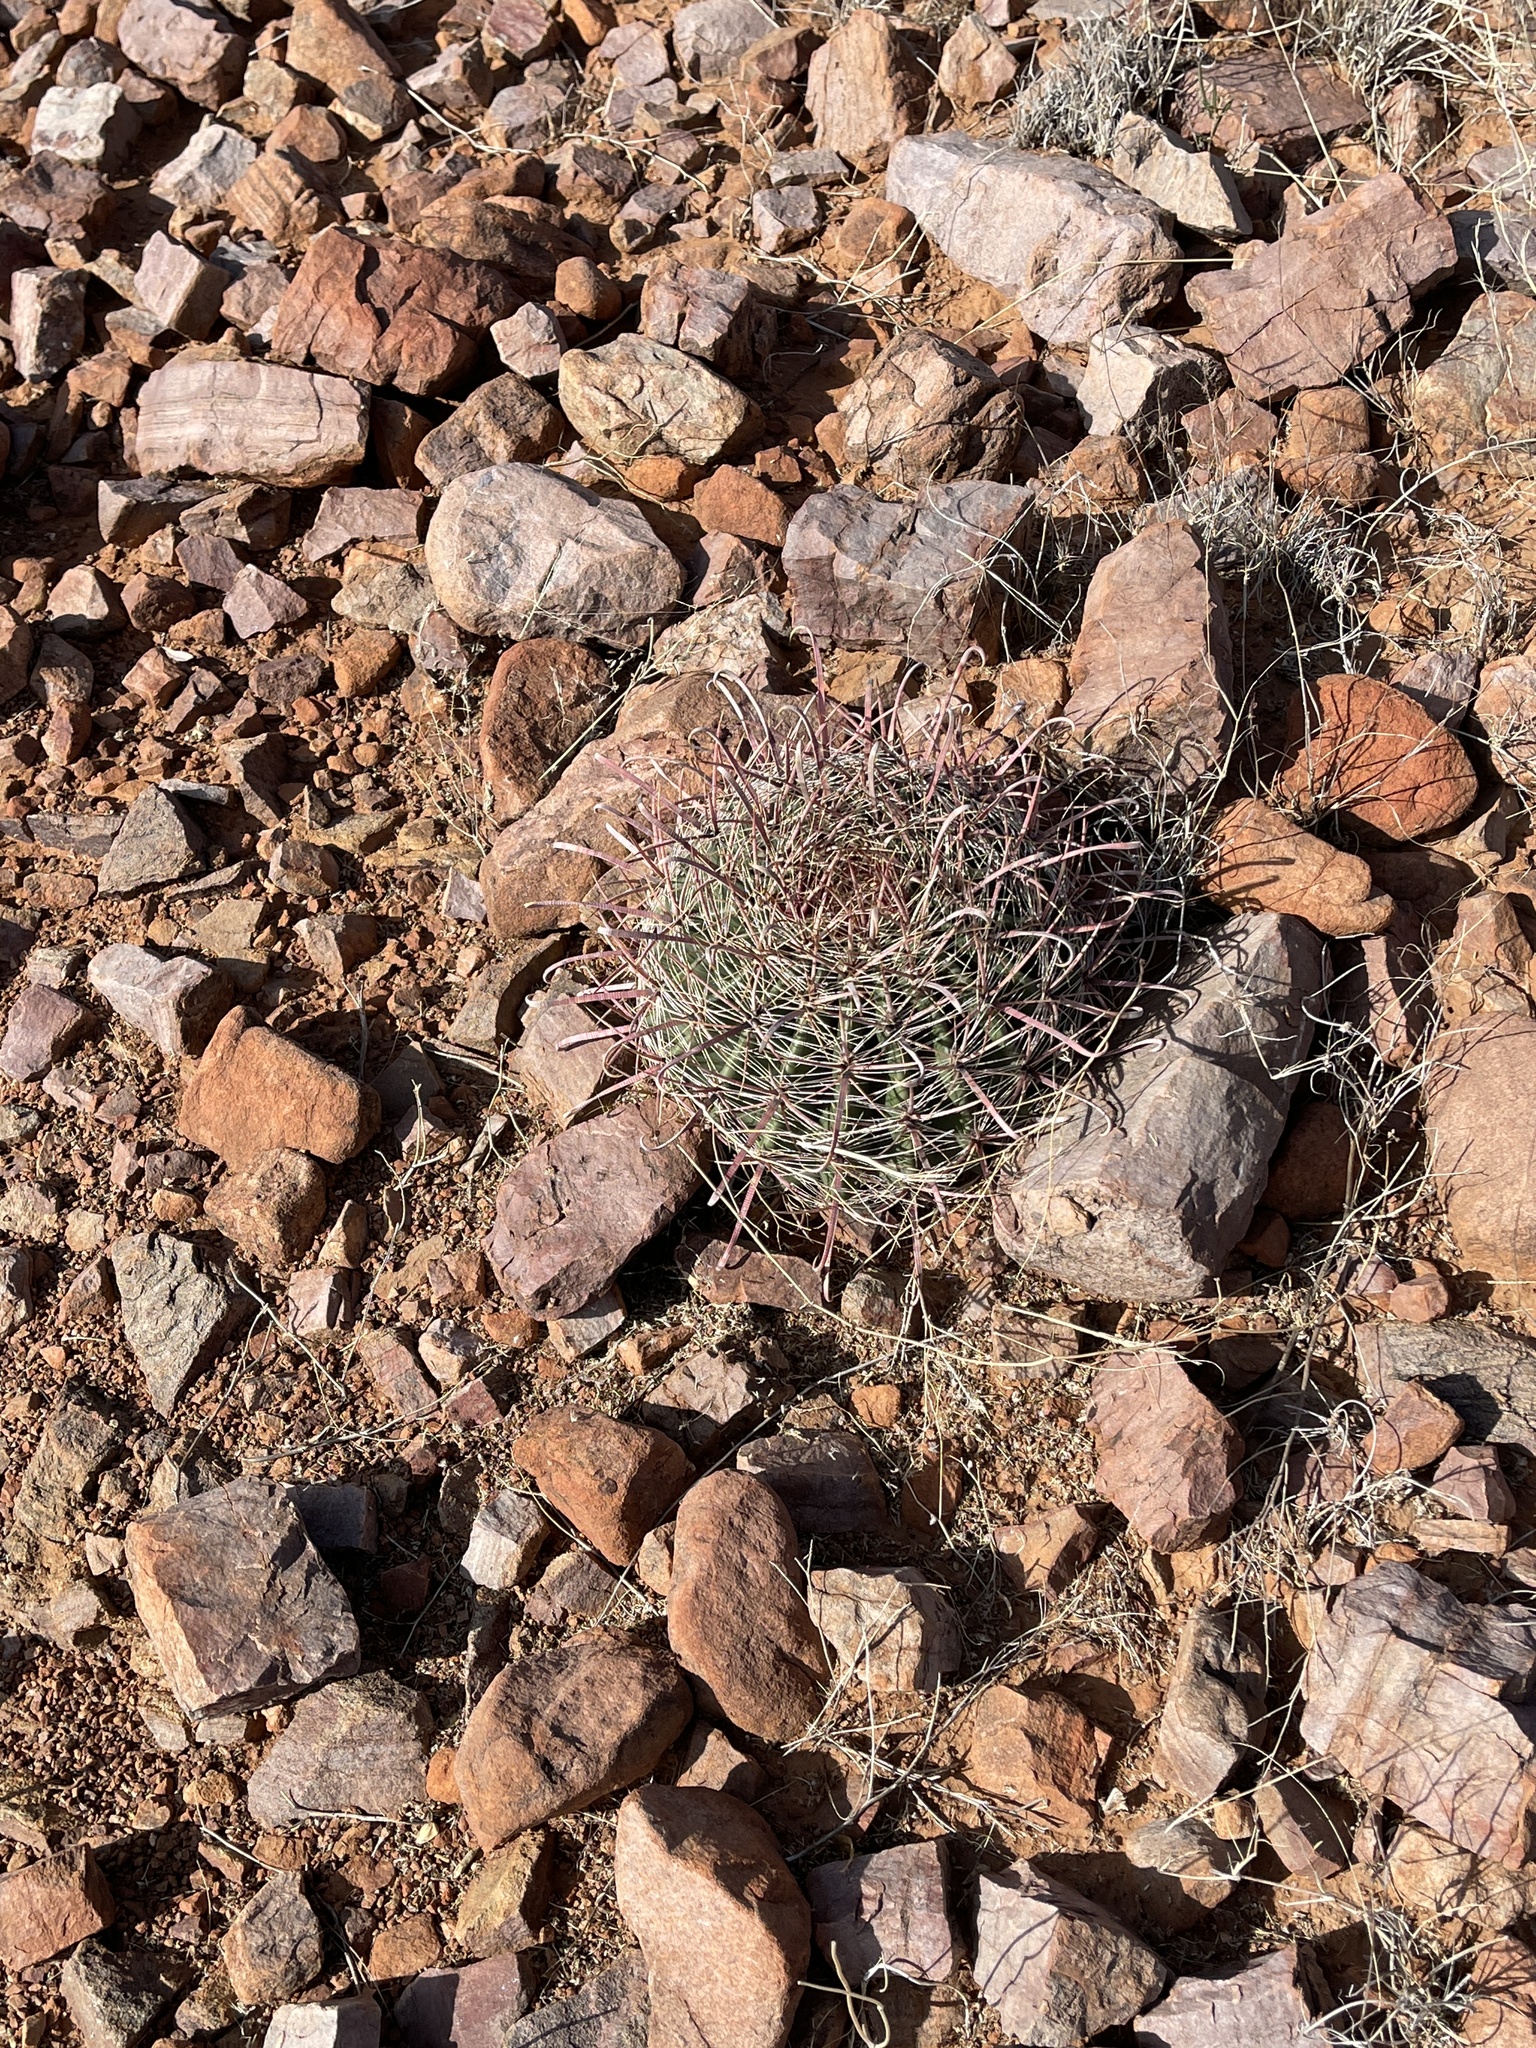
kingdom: Plantae
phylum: Tracheophyta
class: Magnoliopsida
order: Caryophyllales
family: Cactaceae
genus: Ferocactus
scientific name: Ferocactus wislizeni
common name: Candy barrel cactus
